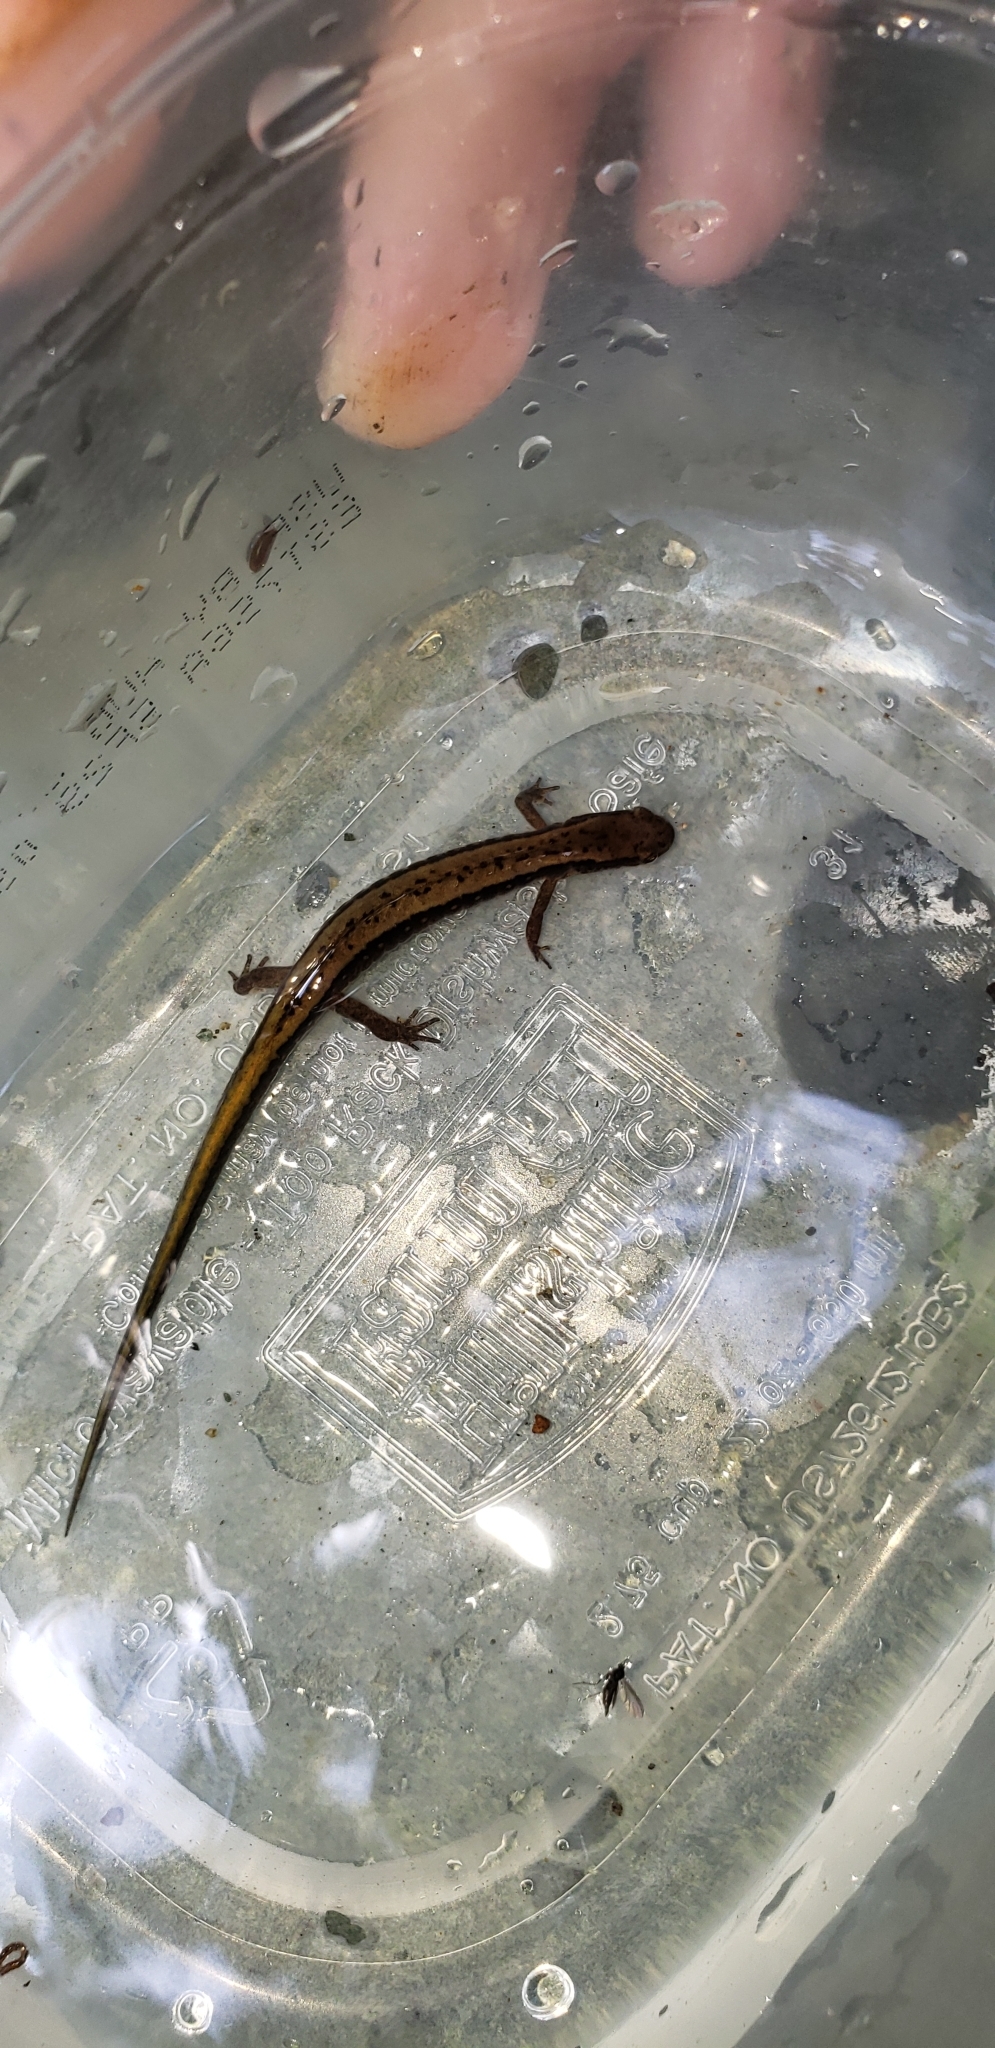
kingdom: Animalia
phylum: Chordata
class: Amphibia
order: Caudata
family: Plethodontidae
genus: Eurycea
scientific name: Eurycea bislineata
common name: Northern two-lined salamander
